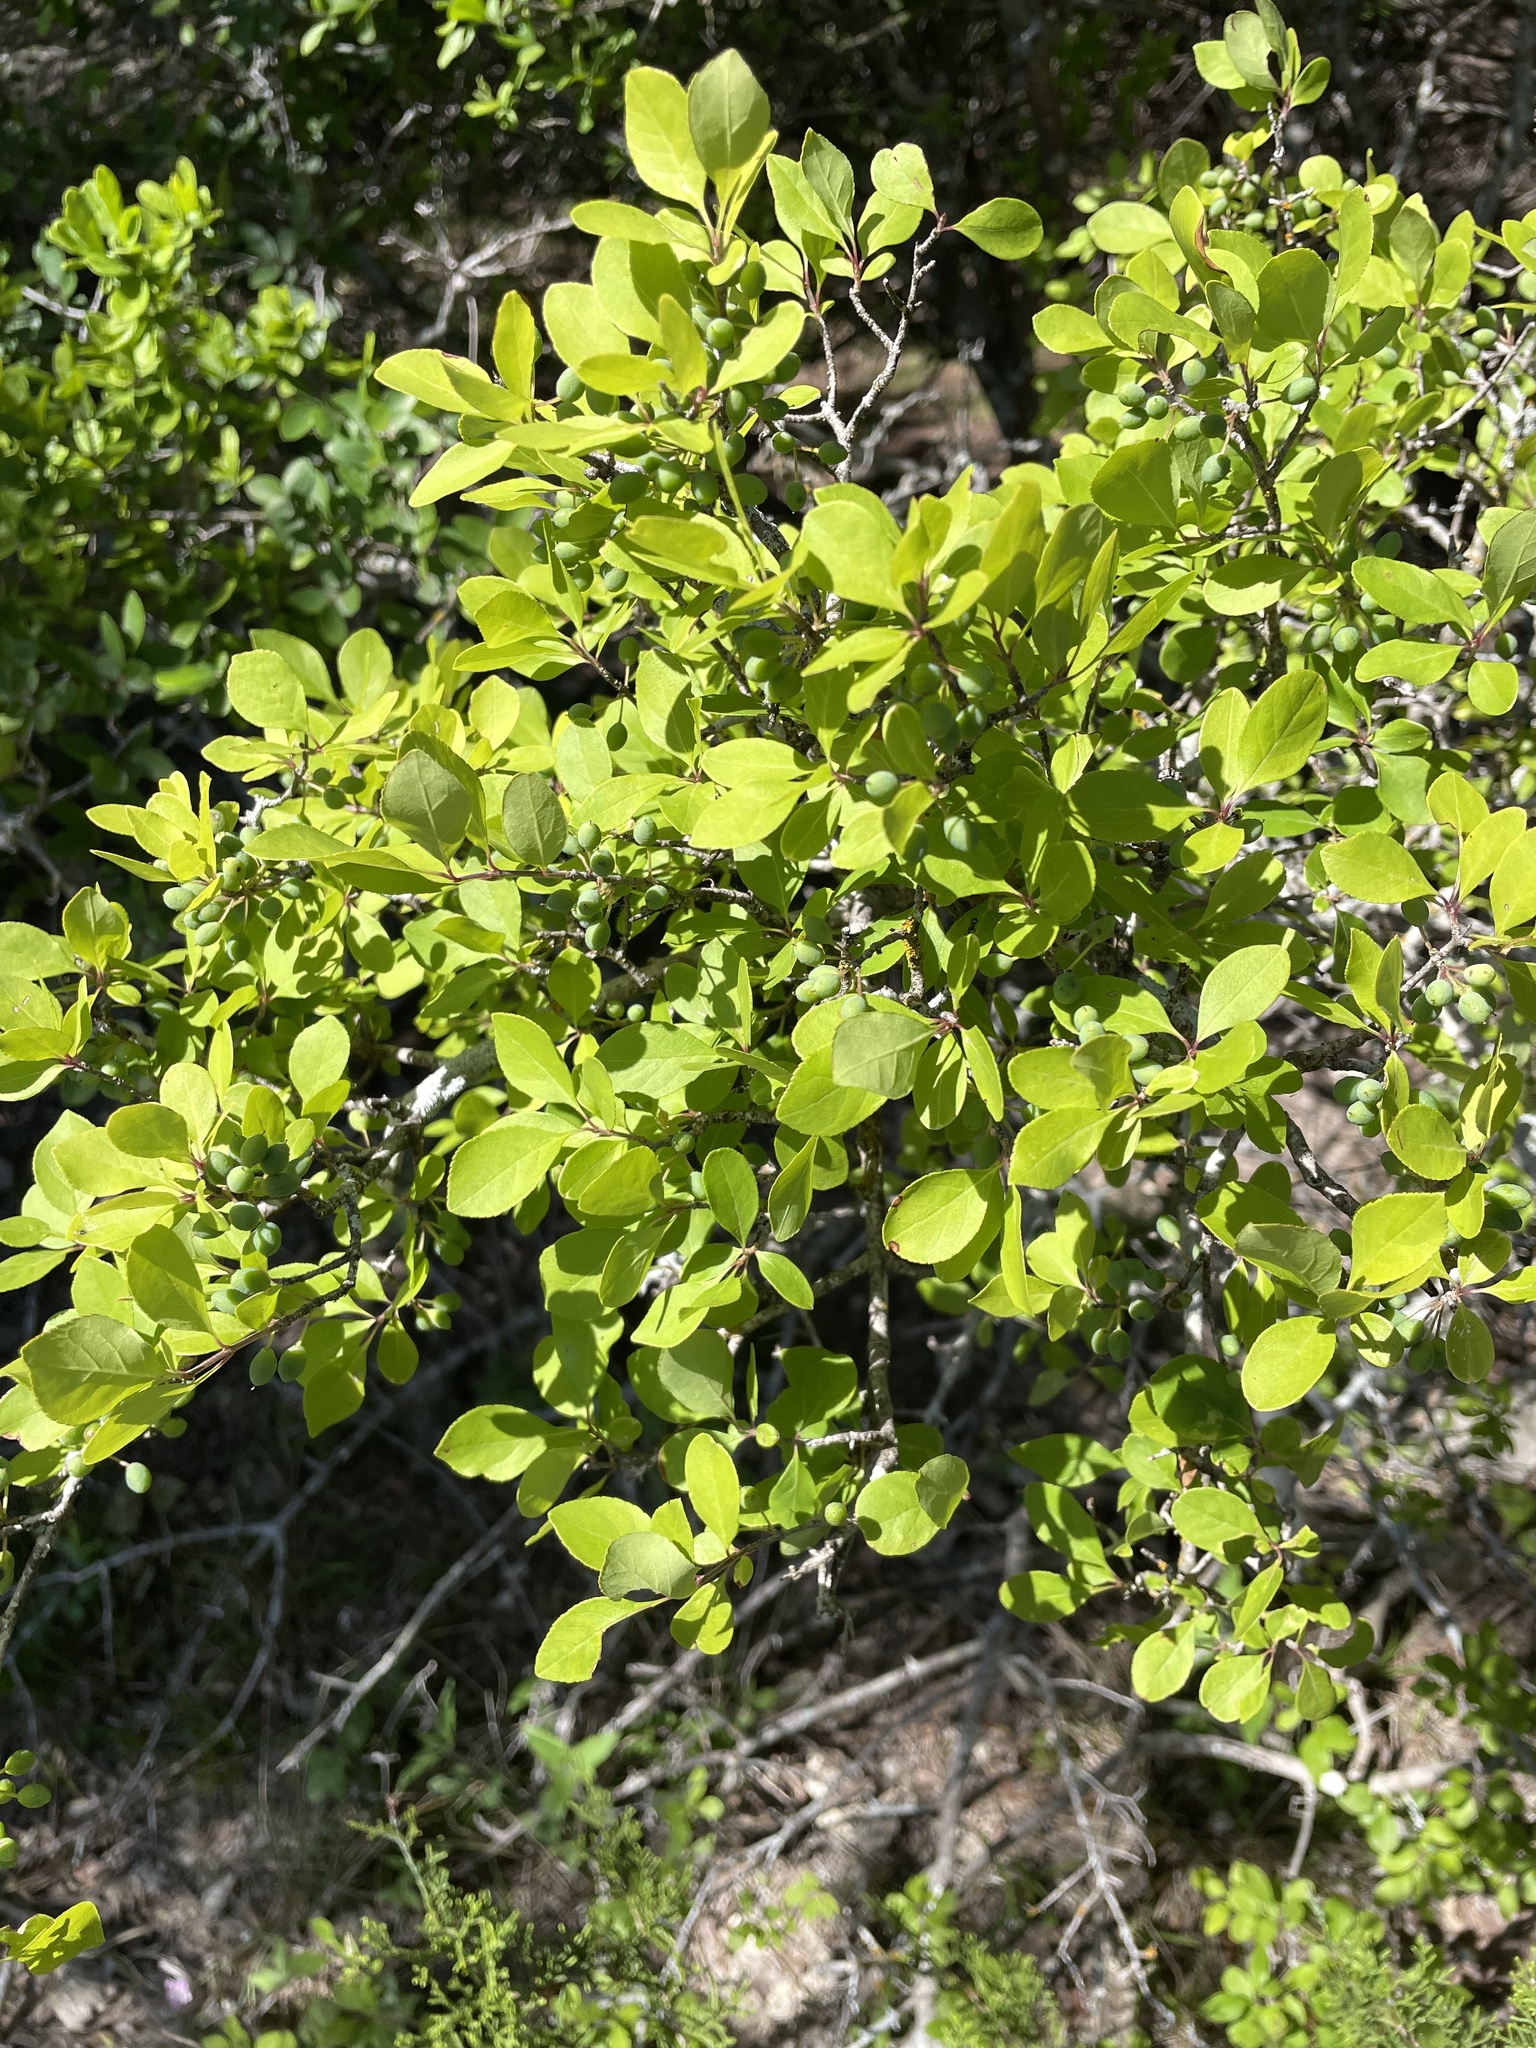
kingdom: Plantae
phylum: Tracheophyta
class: Magnoliopsida
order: Lamiales
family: Oleaceae
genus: Forestiera
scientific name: Forestiera pubescens
